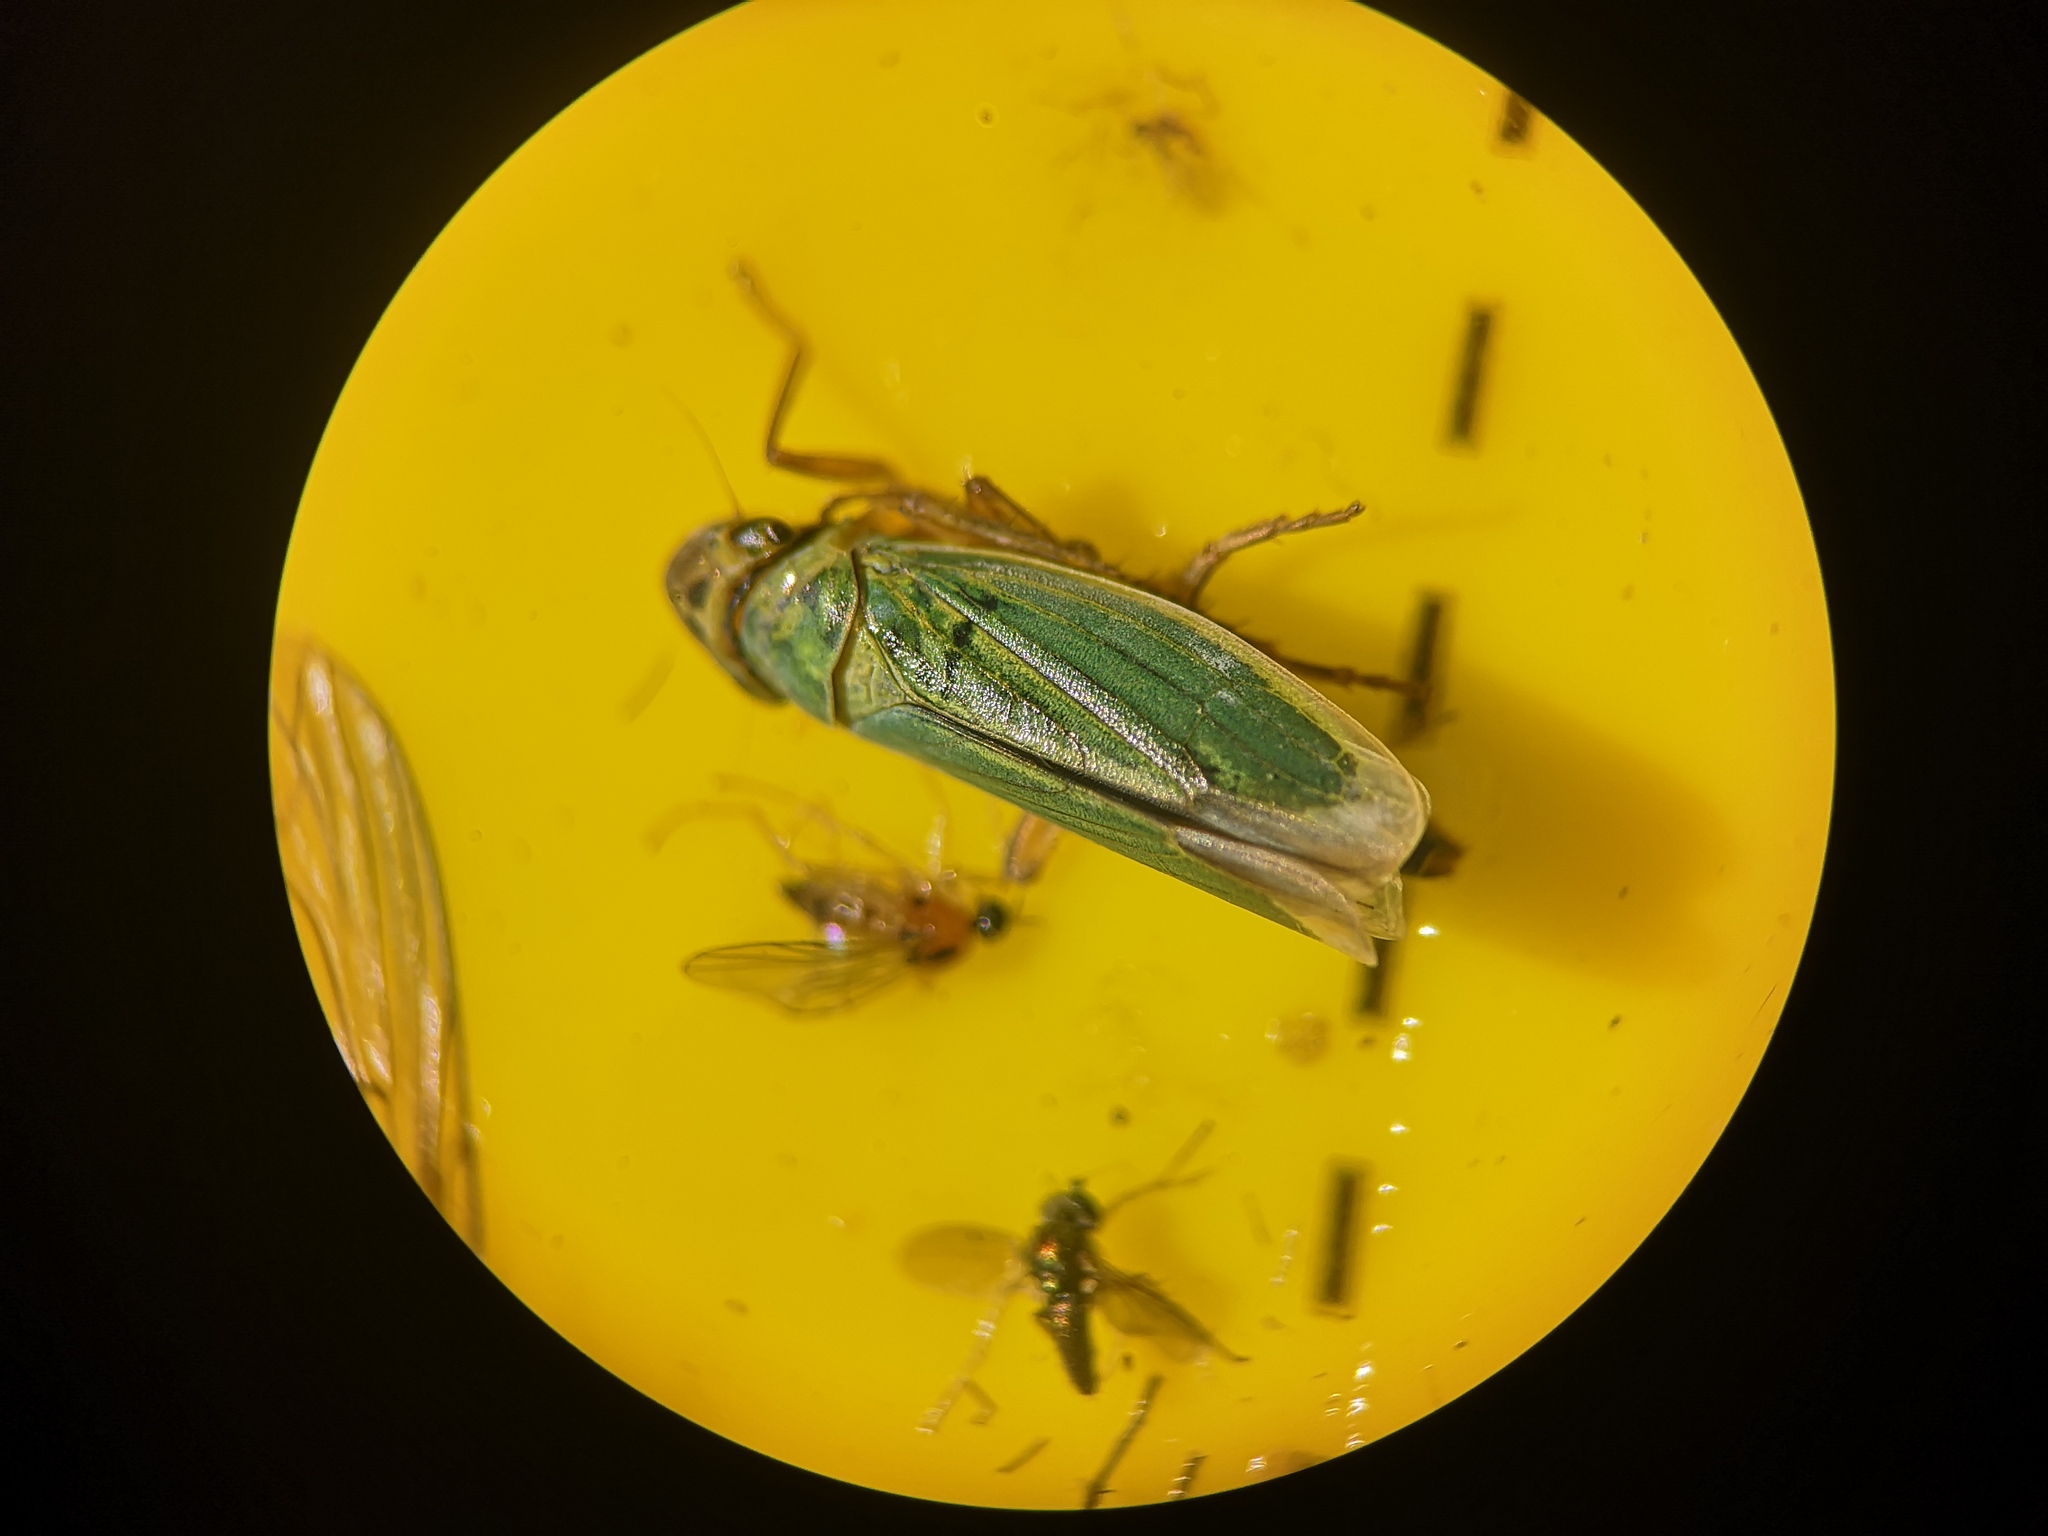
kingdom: Animalia
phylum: Arthropoda
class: Insecta
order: Hemiptera
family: Cicadellidae
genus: Cicadella
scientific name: Cicadella viridis
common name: Leafhopper
